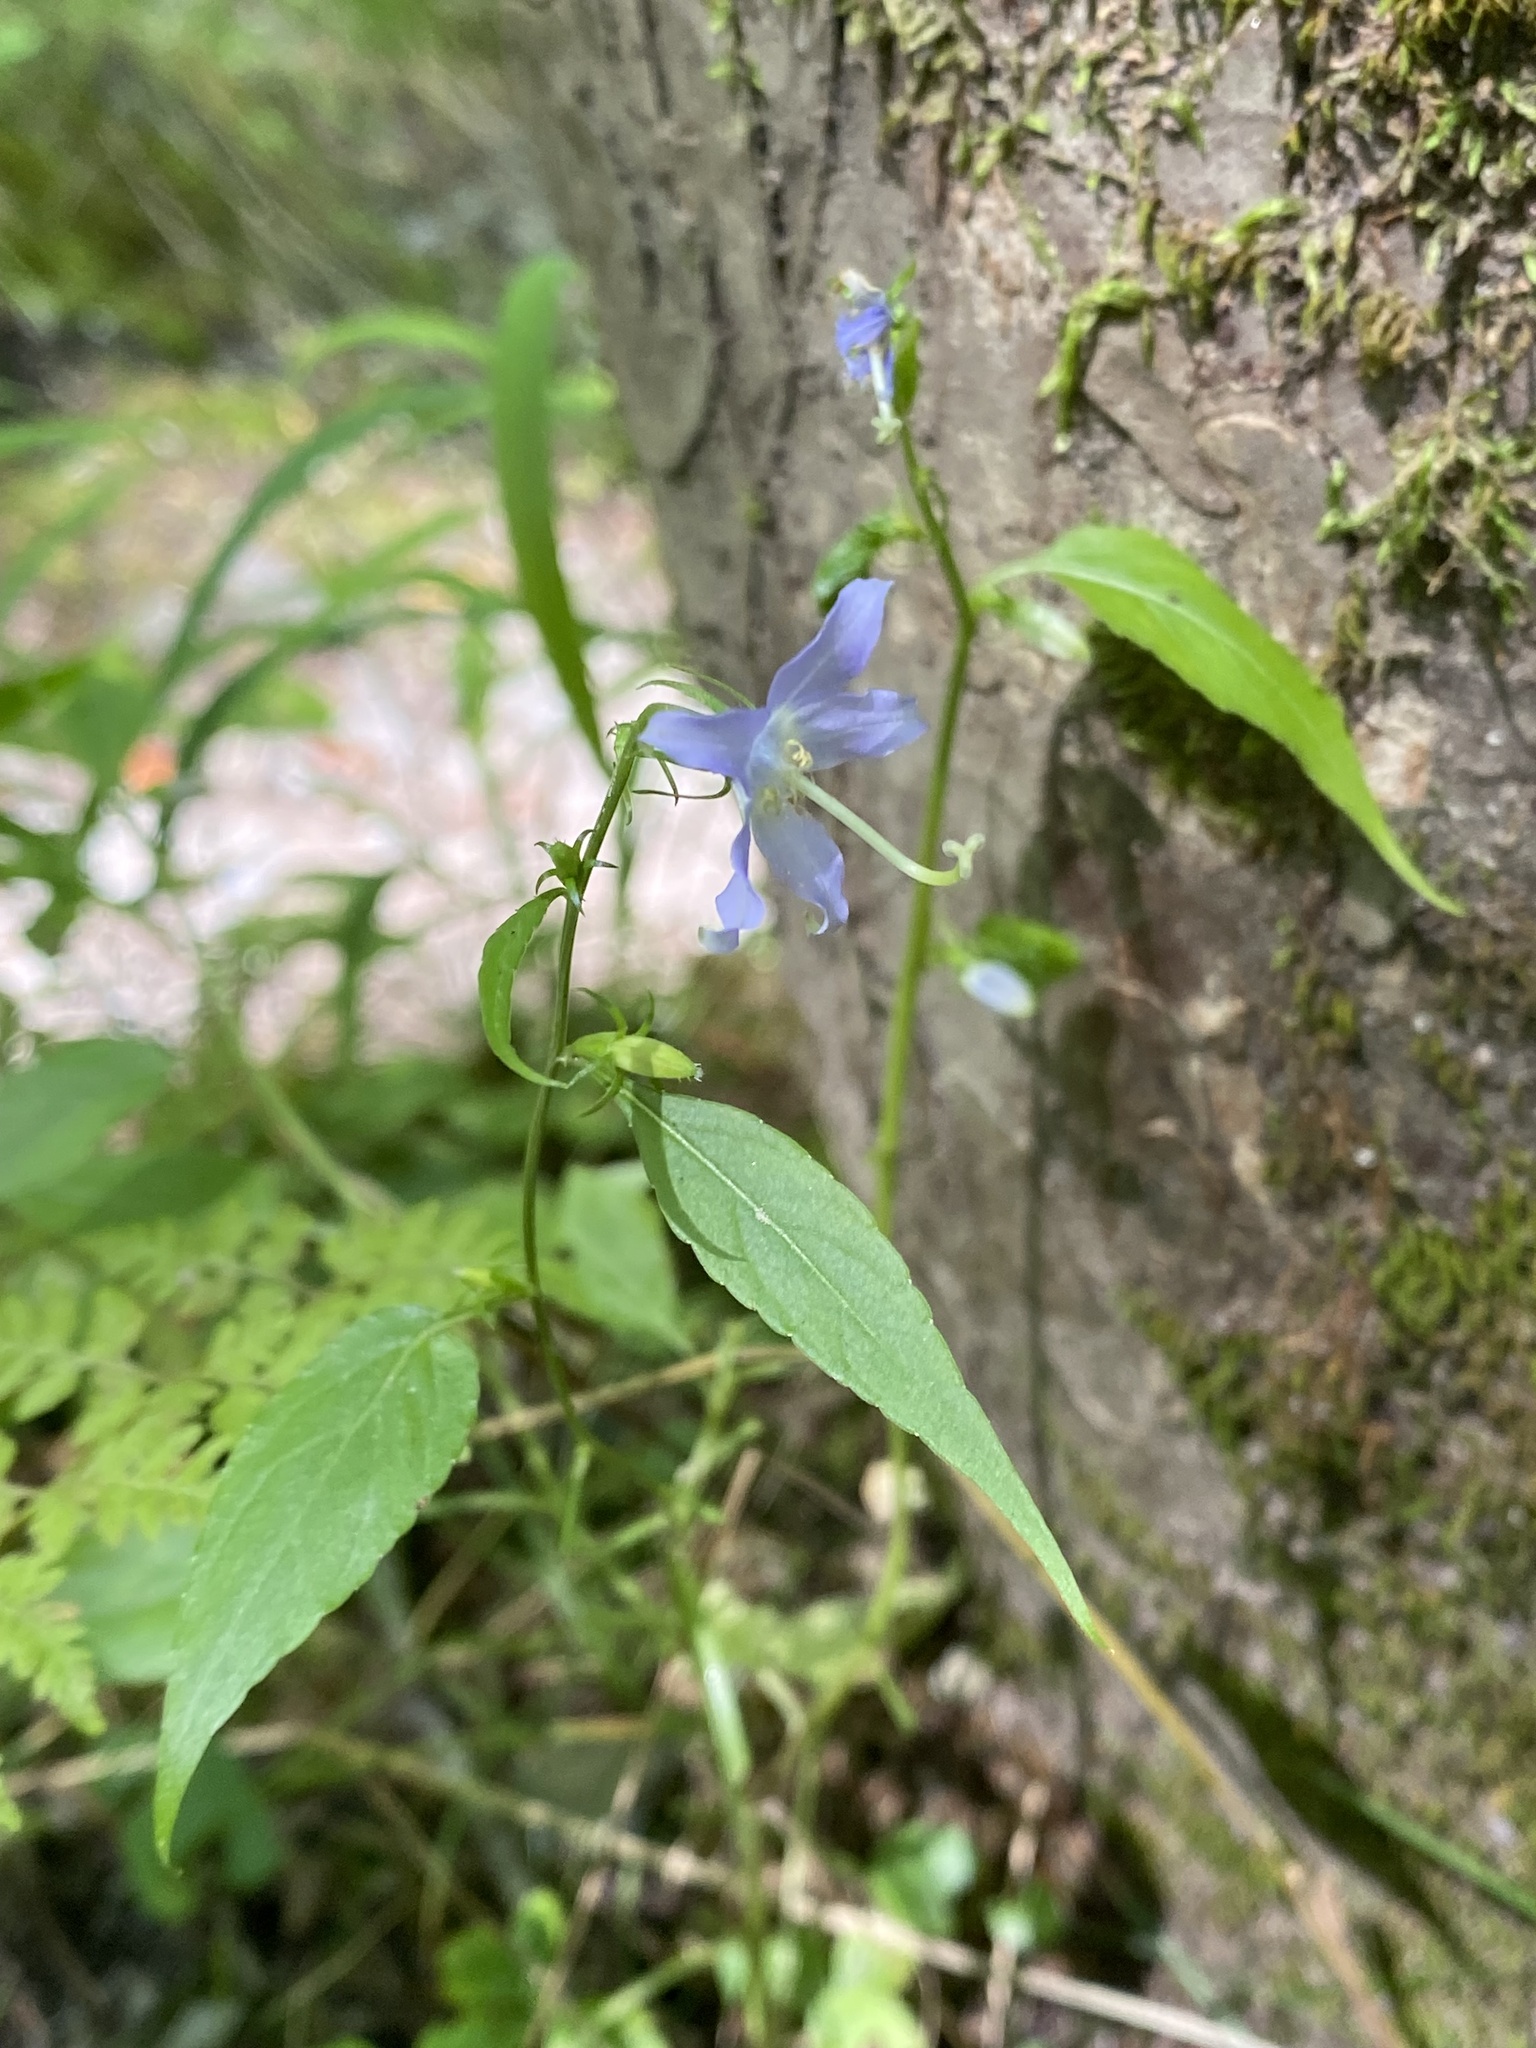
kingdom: Plantae
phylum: Tracheophyta
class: Magnoliopsida
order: Asterales
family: Campanulaceae
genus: Campanulastrum
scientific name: Campanulastrum americanum
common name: American bellflower
